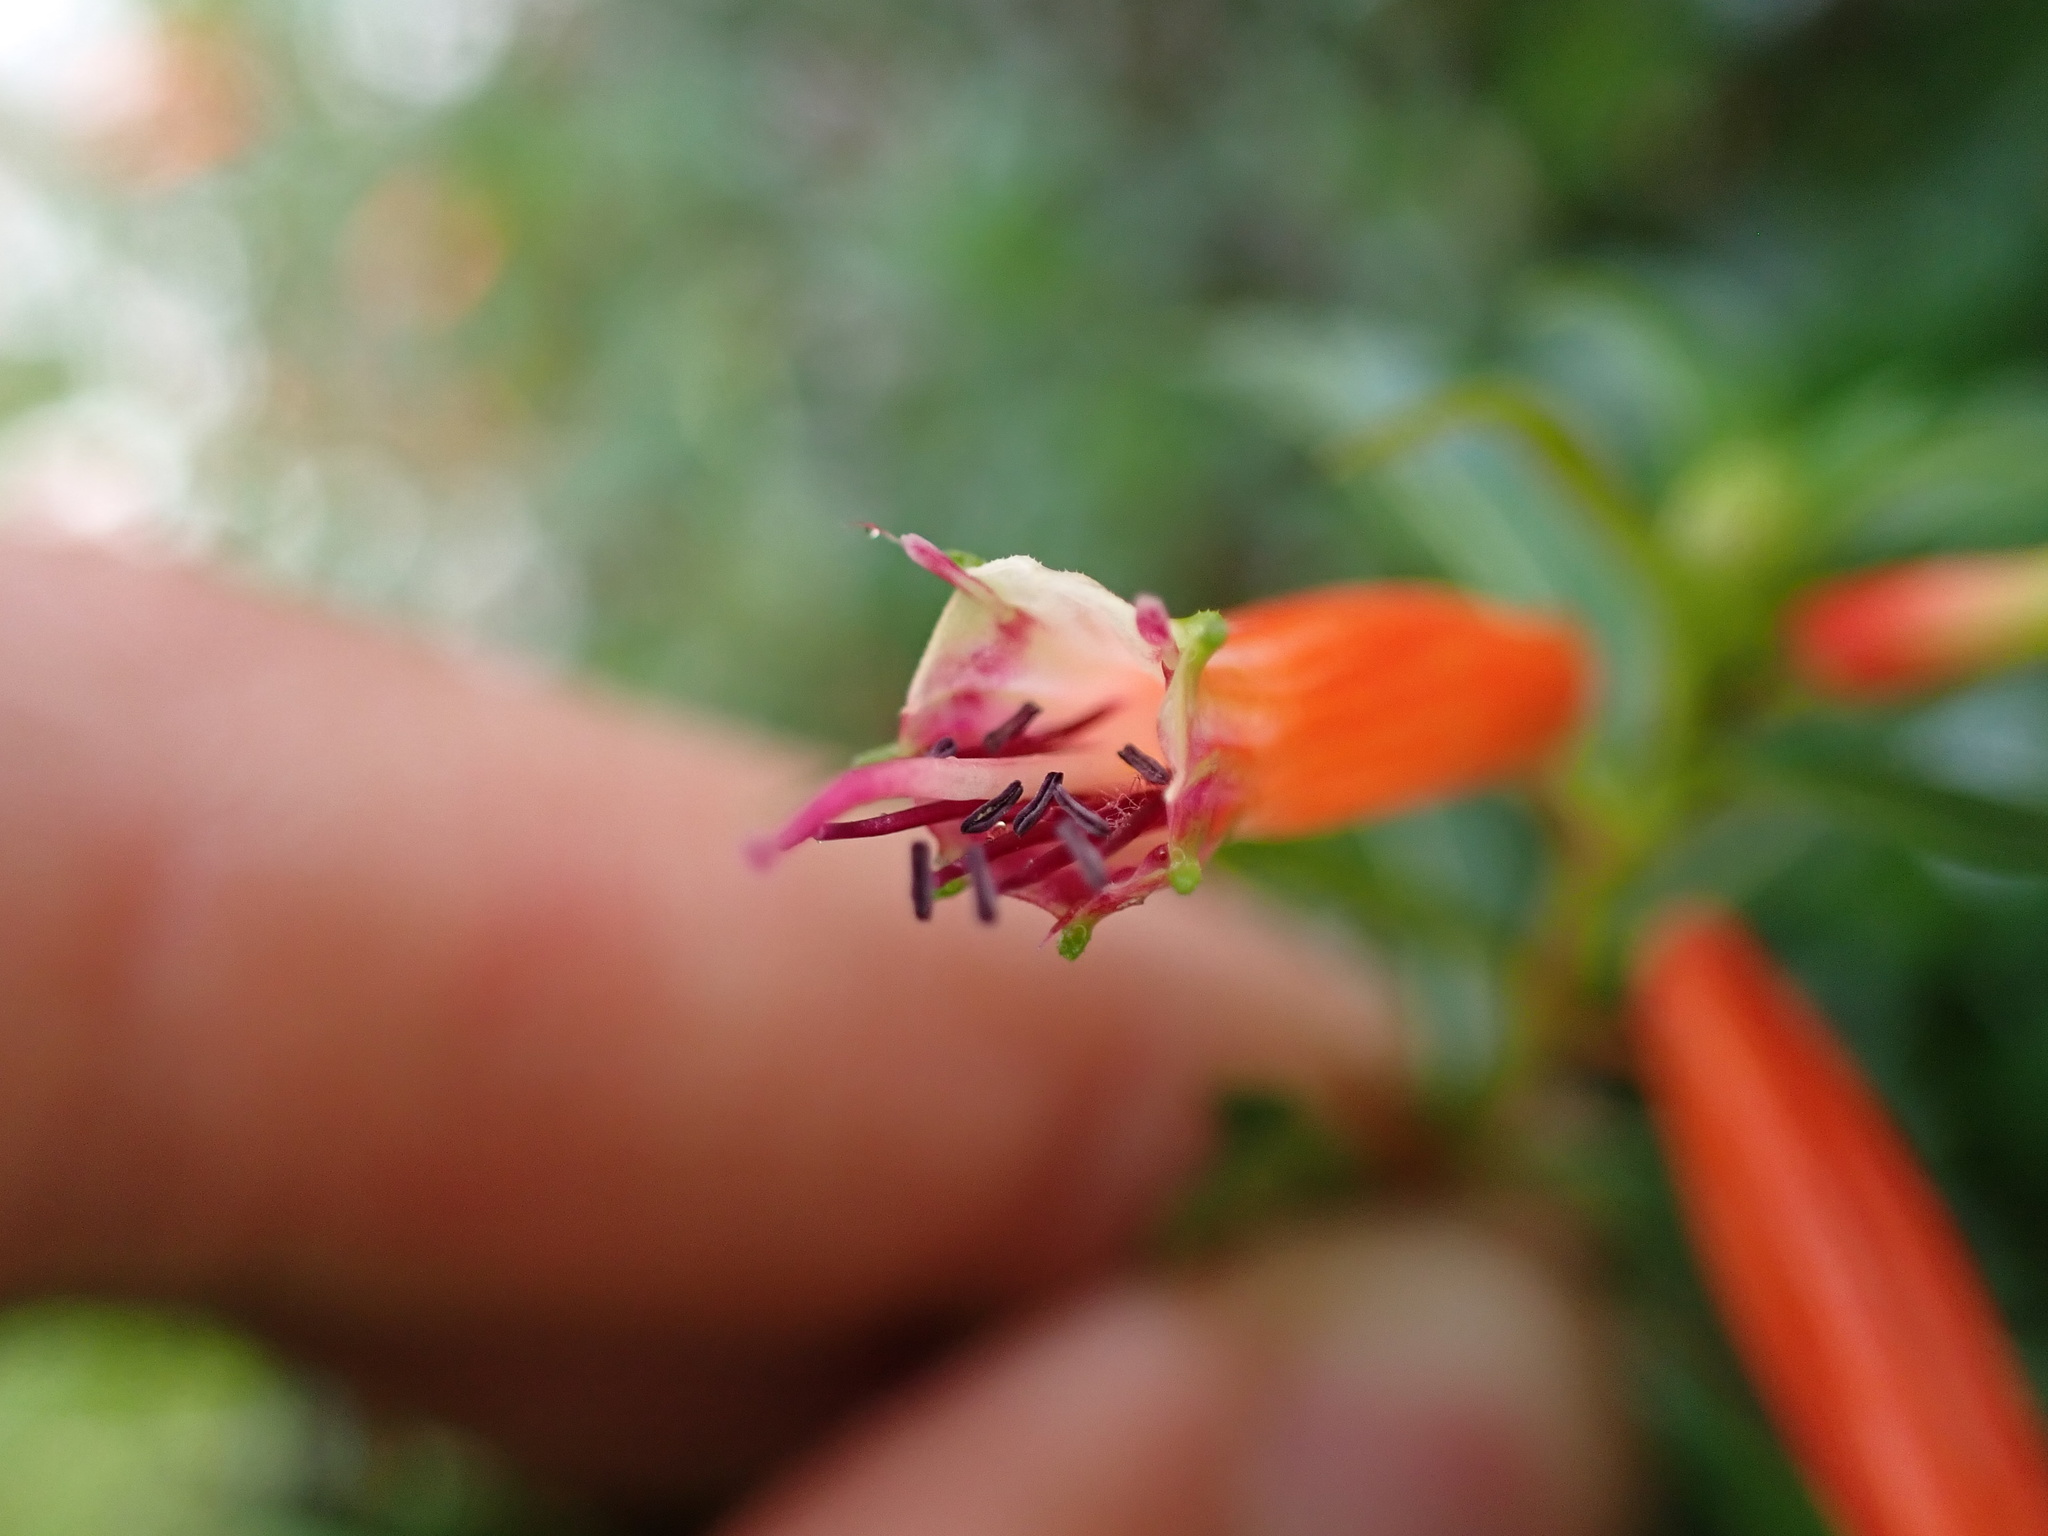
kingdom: Plantae
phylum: Tracheophyta
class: Magnoliopsida
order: Myrtales
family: Lythraceae
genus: Cuphea
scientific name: Cuphea ignea
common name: Cigar flower
